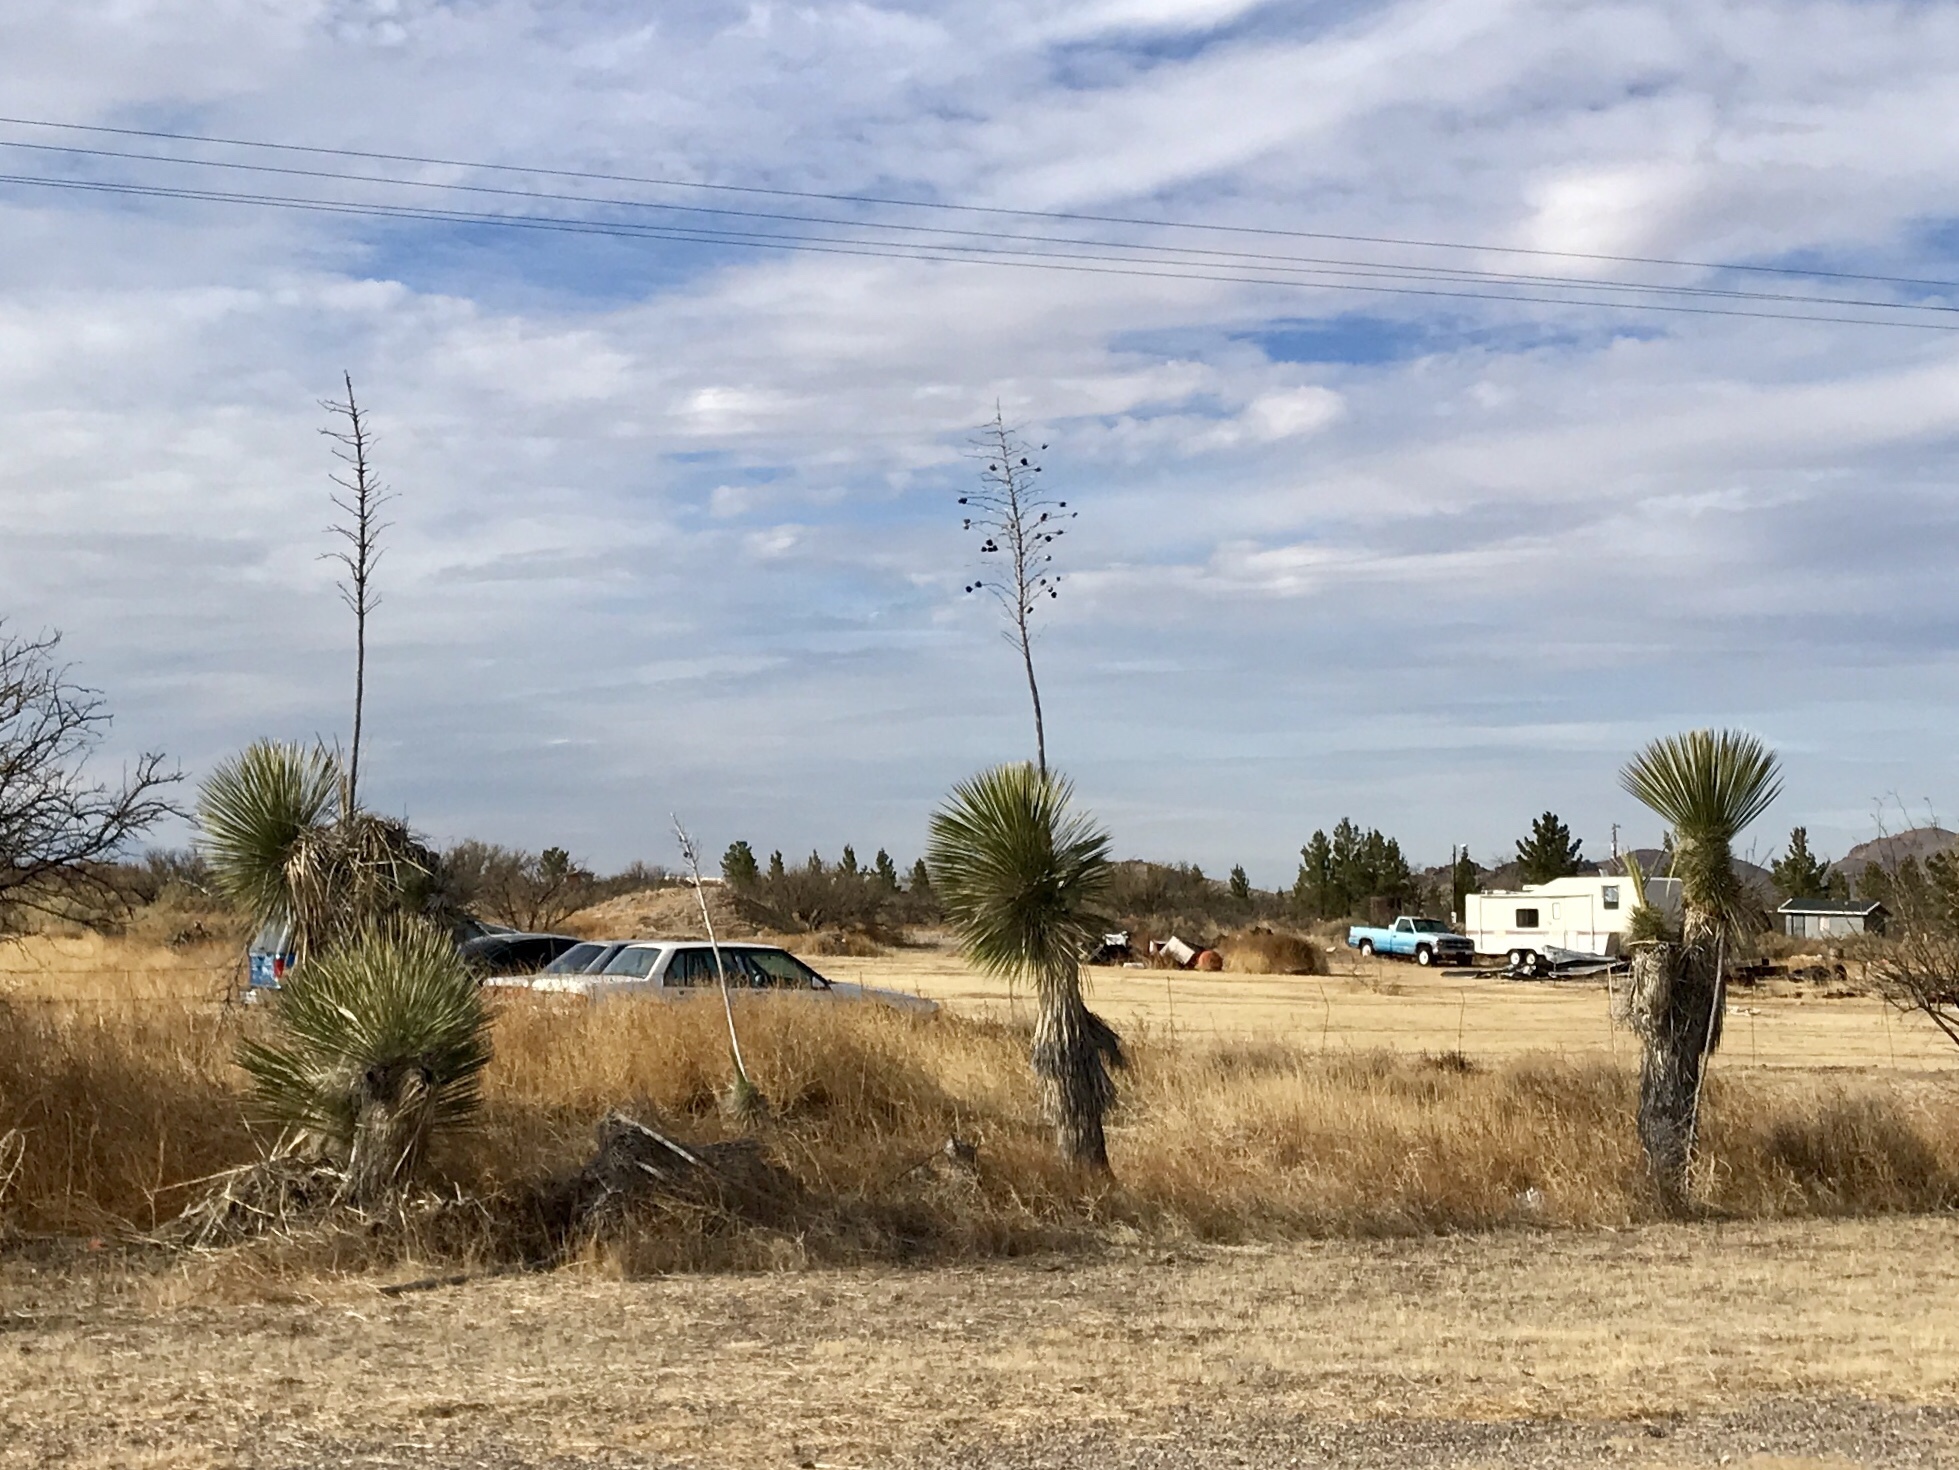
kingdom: Plantae
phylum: Tracheophyta
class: Liliopsida
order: Asparagales
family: Asparagaceae
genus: Yucca
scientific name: Yucca elata
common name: Palmella
